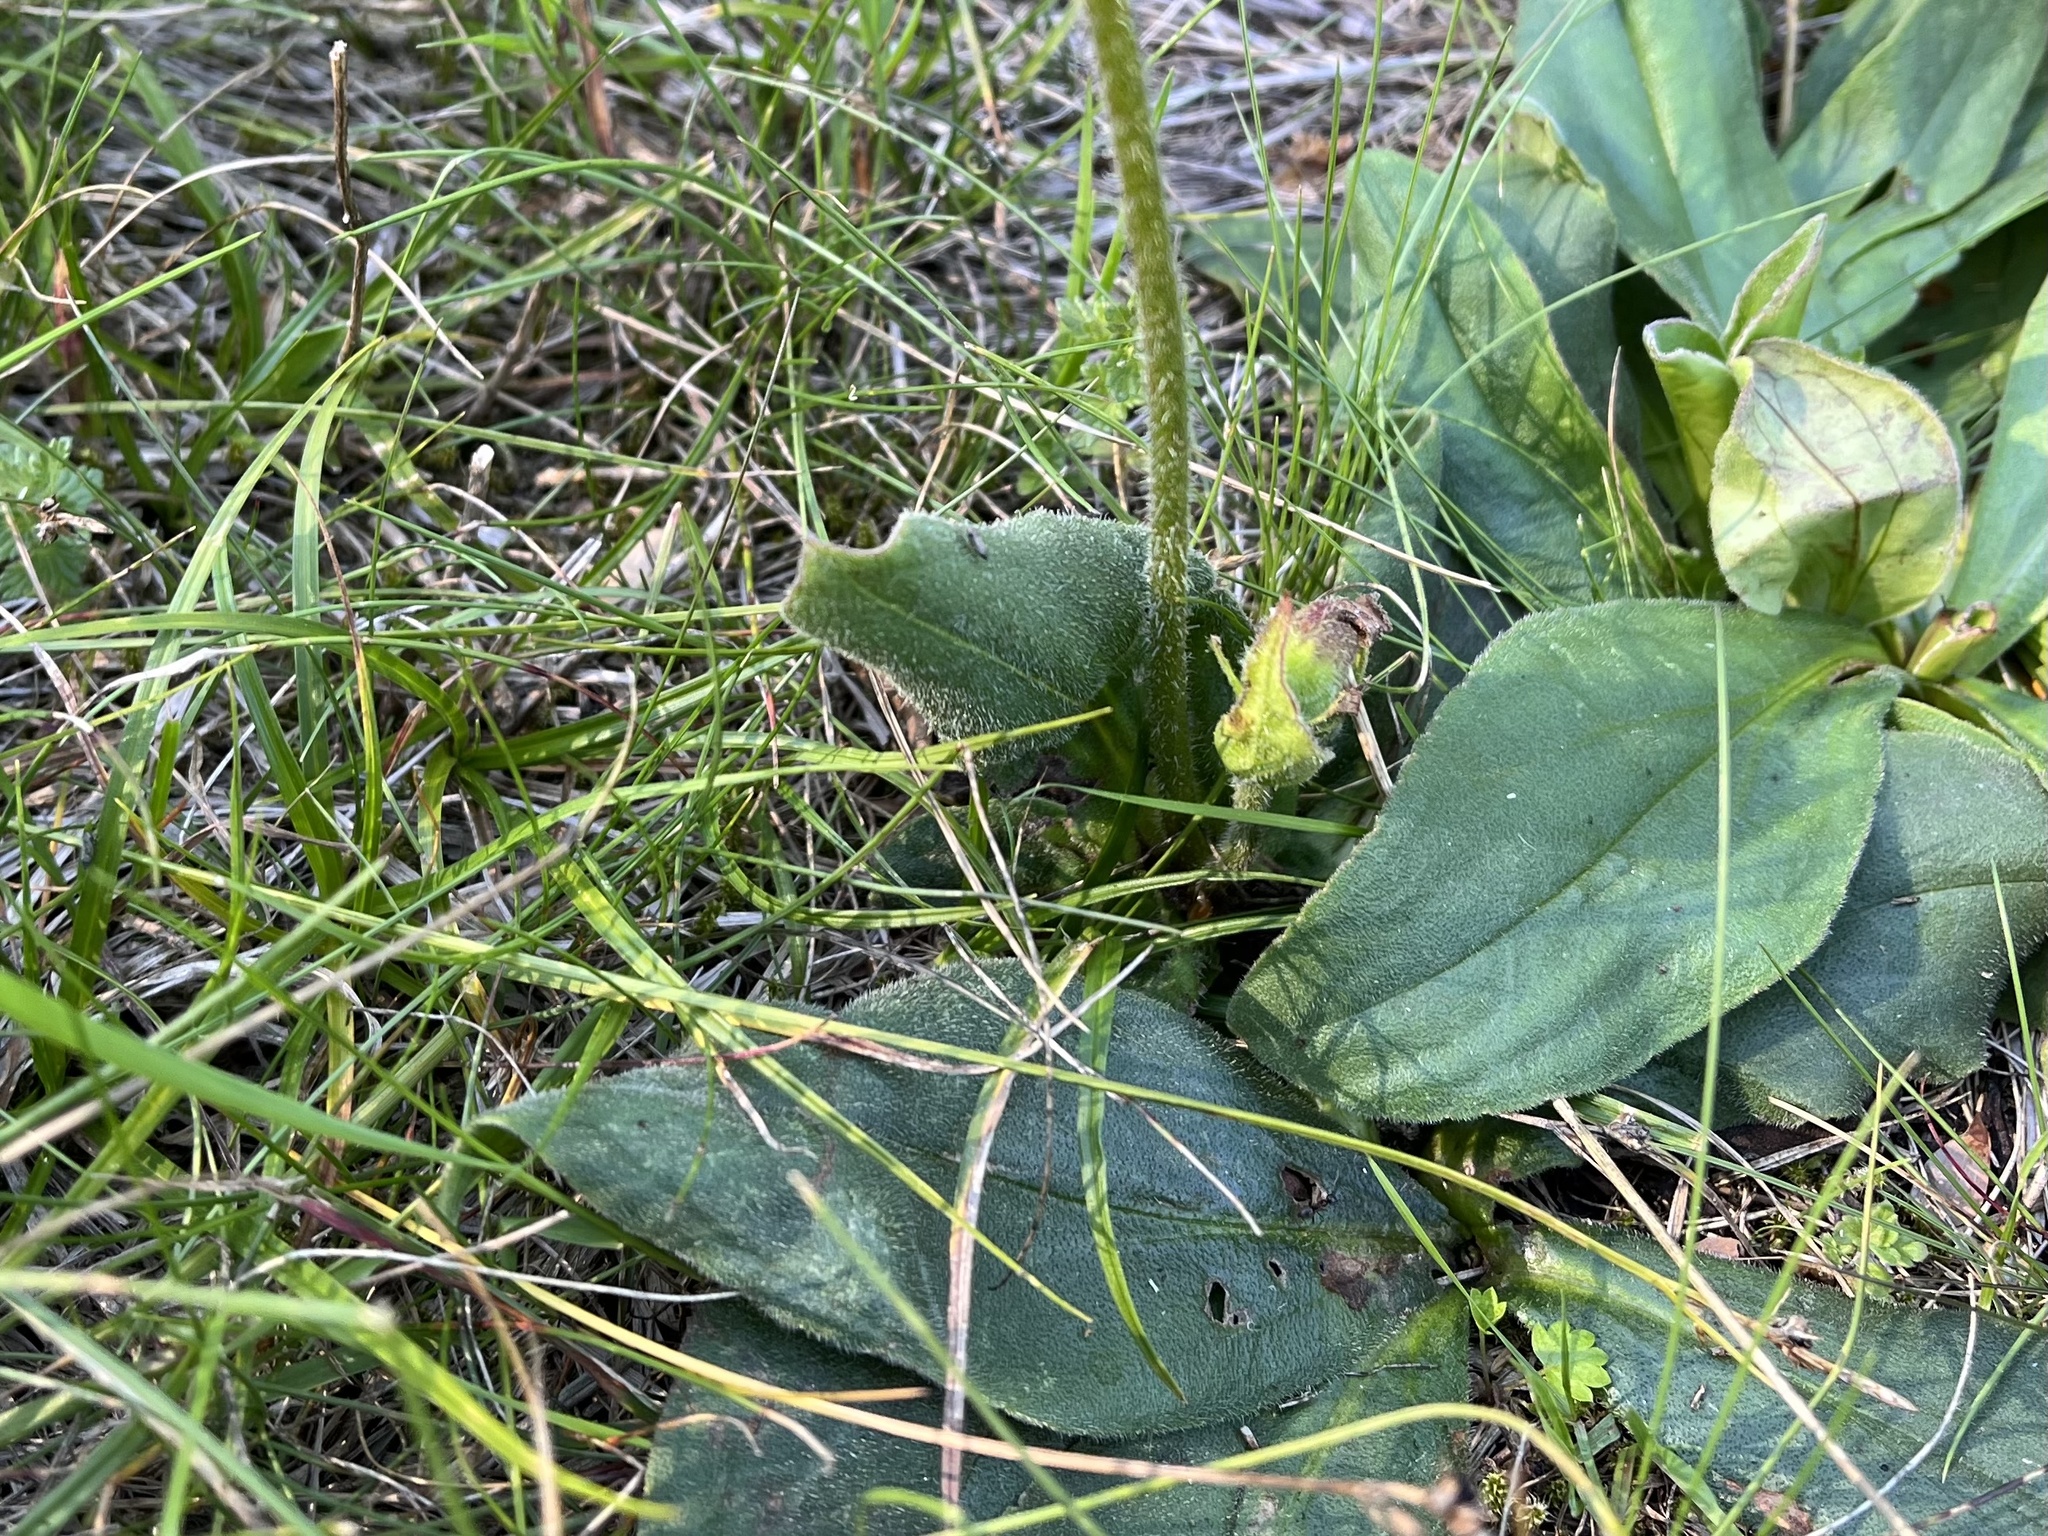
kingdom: Plantae
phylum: Tracheophyta
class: Magnoliopsida
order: Asterales
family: Asteraceae
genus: Arnica
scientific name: Arnica montana
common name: Leopard's bane
